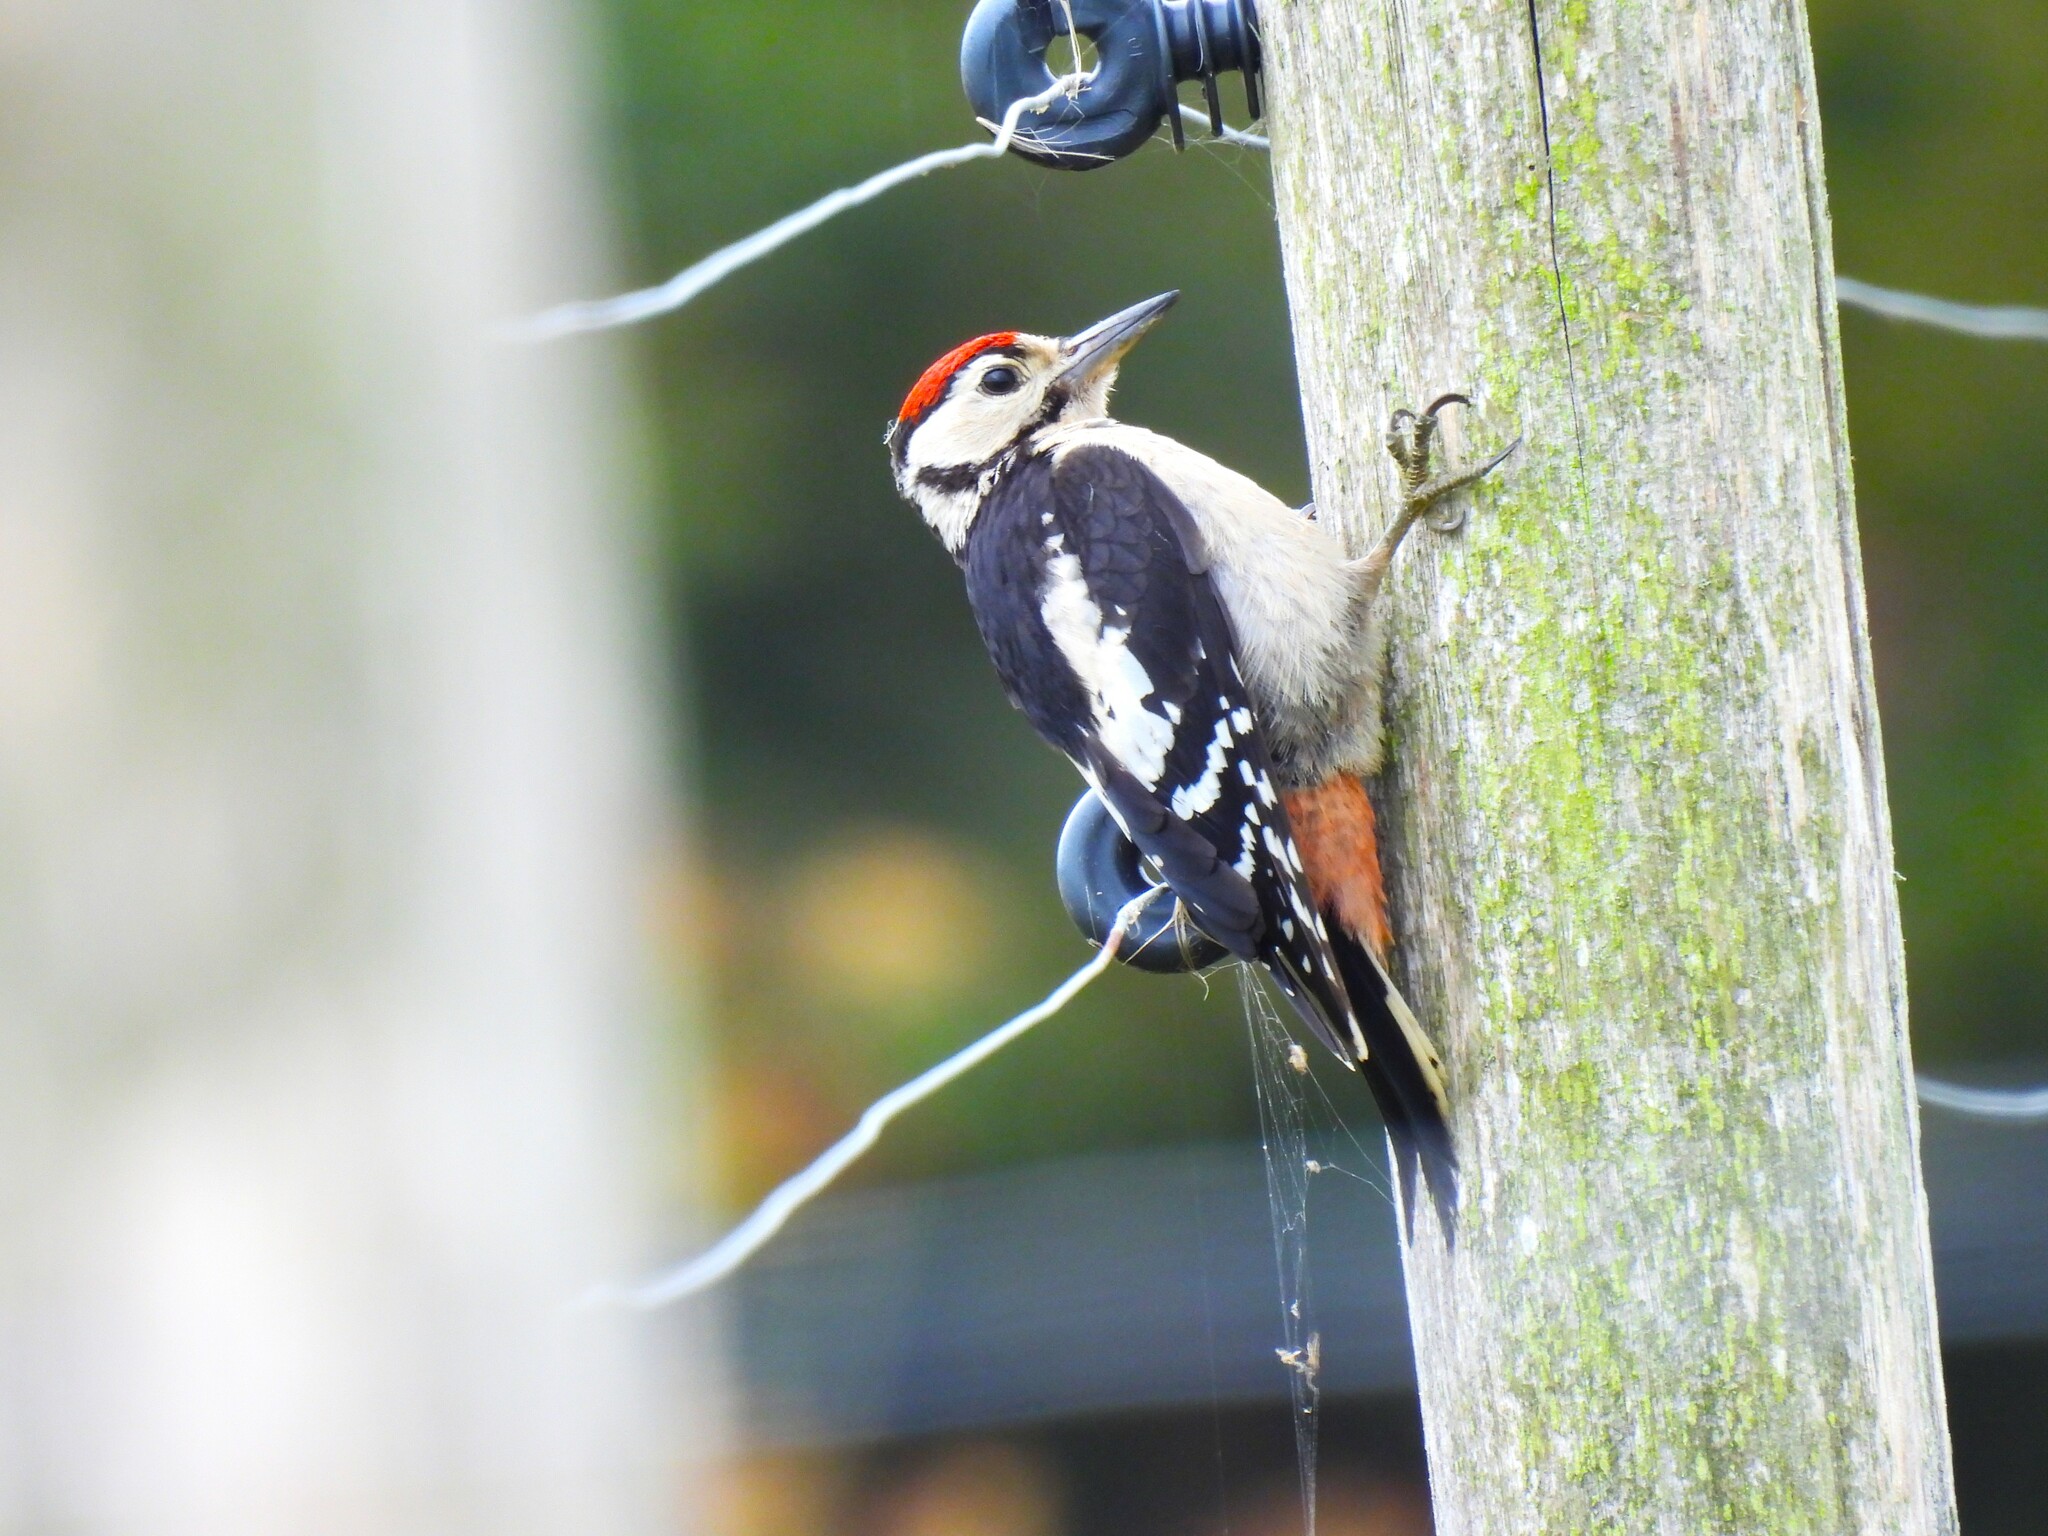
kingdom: Animalia
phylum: Chordata
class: Aves
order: Piciformes
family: Picidae
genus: Dendrocopos
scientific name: Dendrocopos major
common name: Great spotted woodpecker
